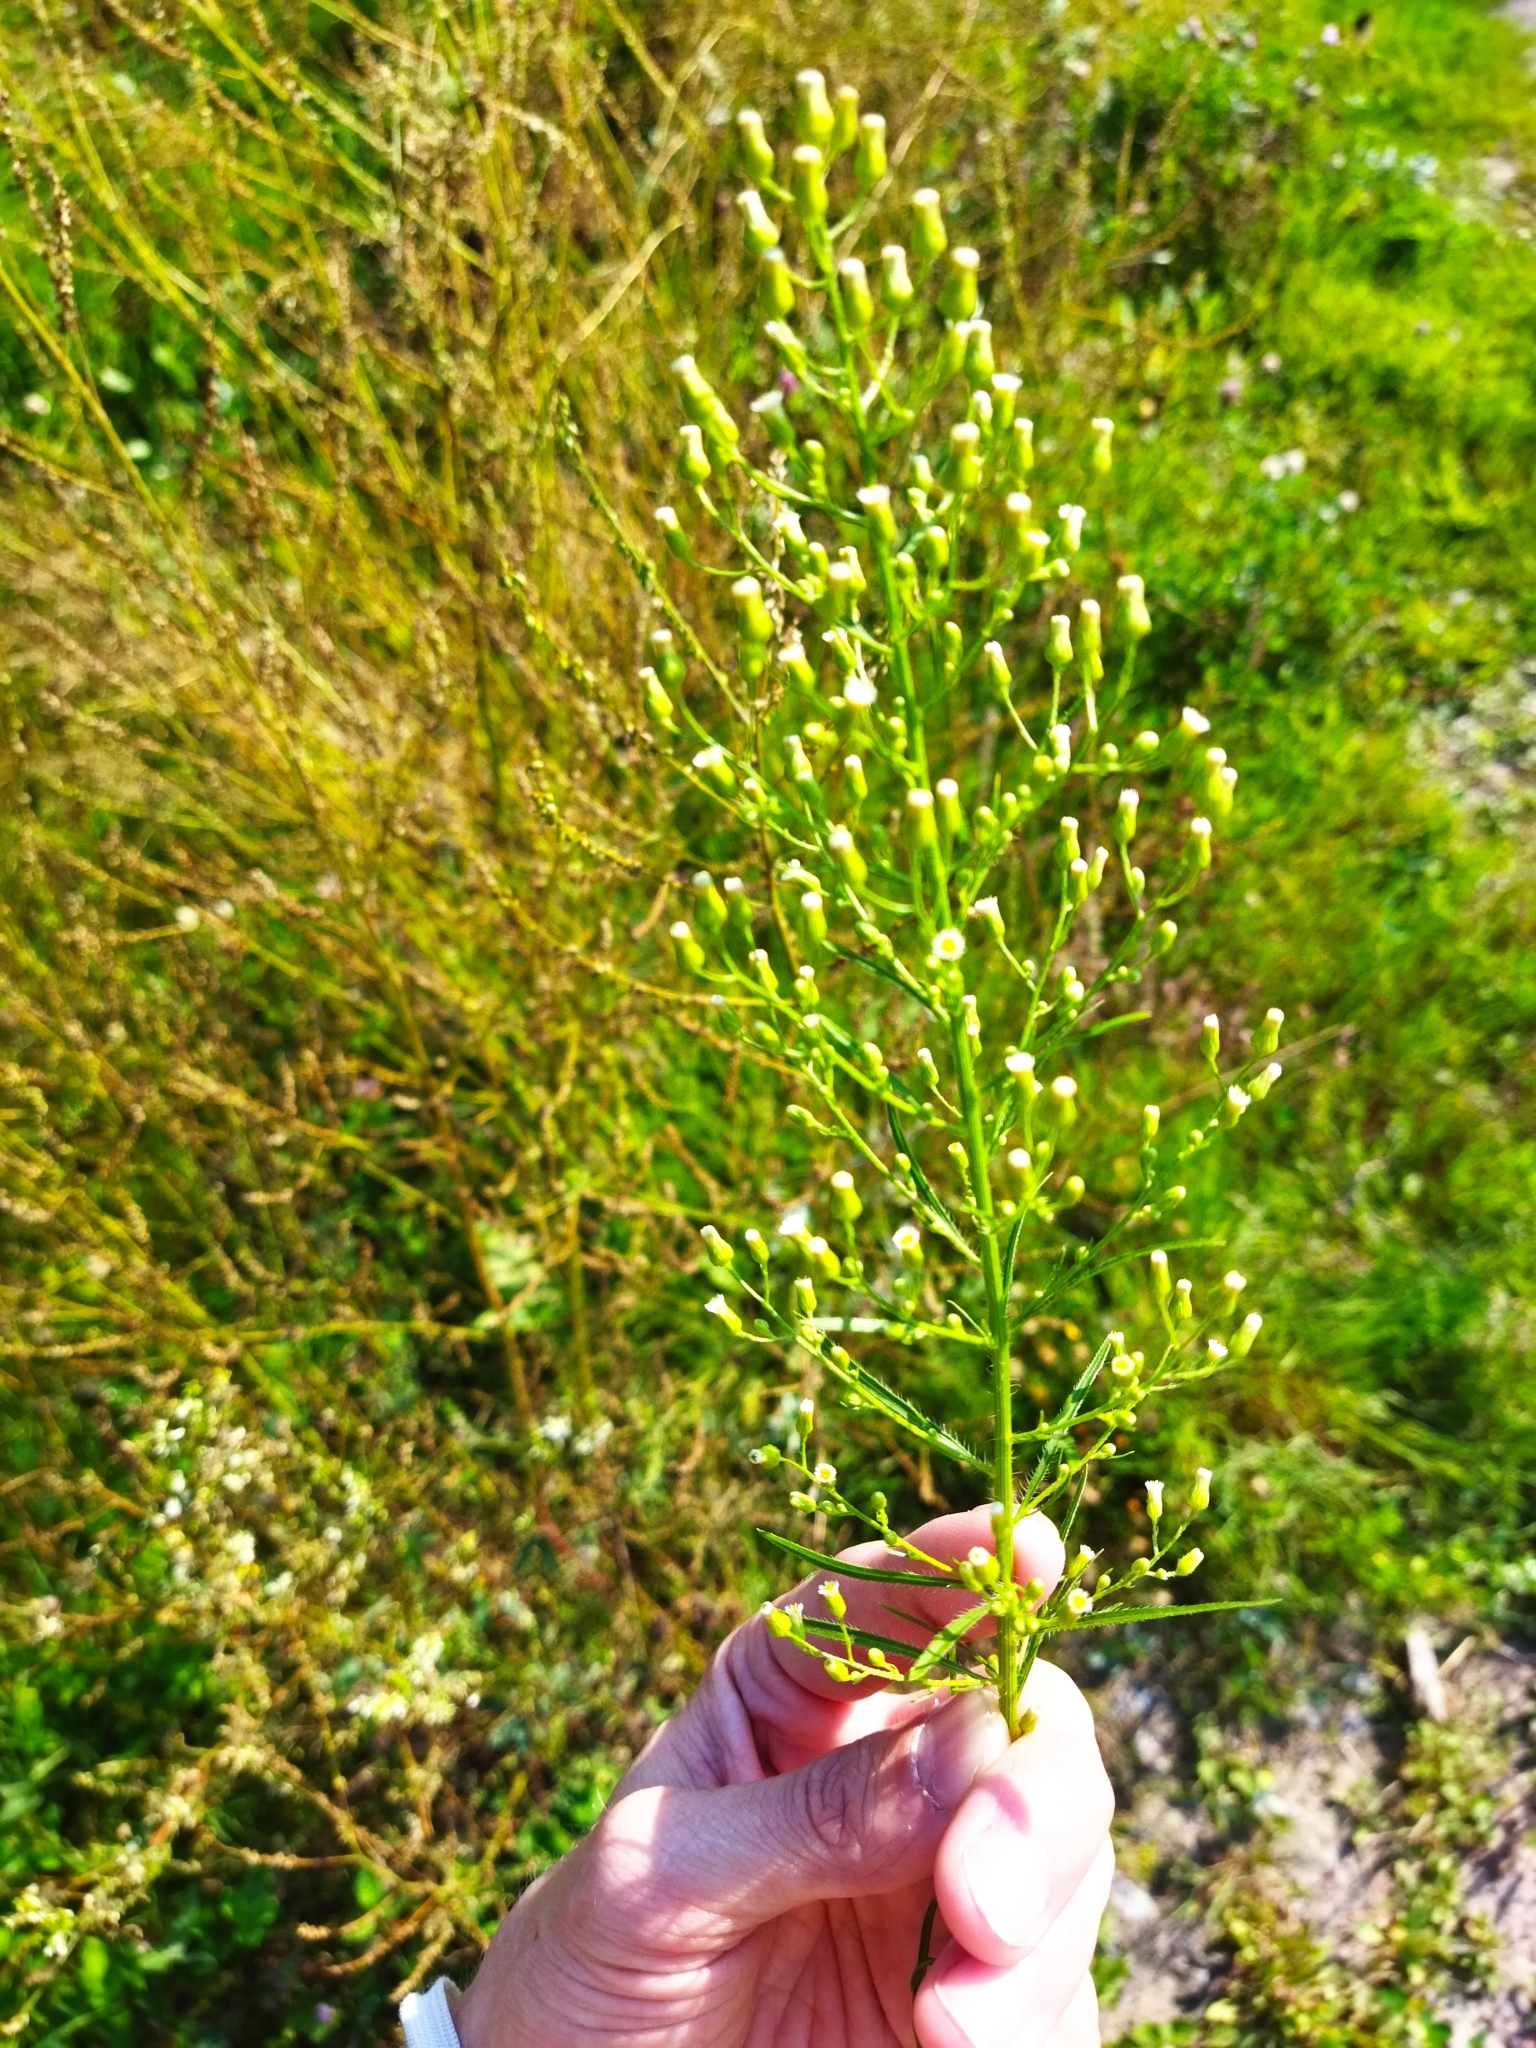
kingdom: Plantae
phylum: Tracheophyta
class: Magnoliopsida
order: Asterales
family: Asteraceae
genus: Erigeron
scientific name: Erigeron canadensis
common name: Canadian fleabane
